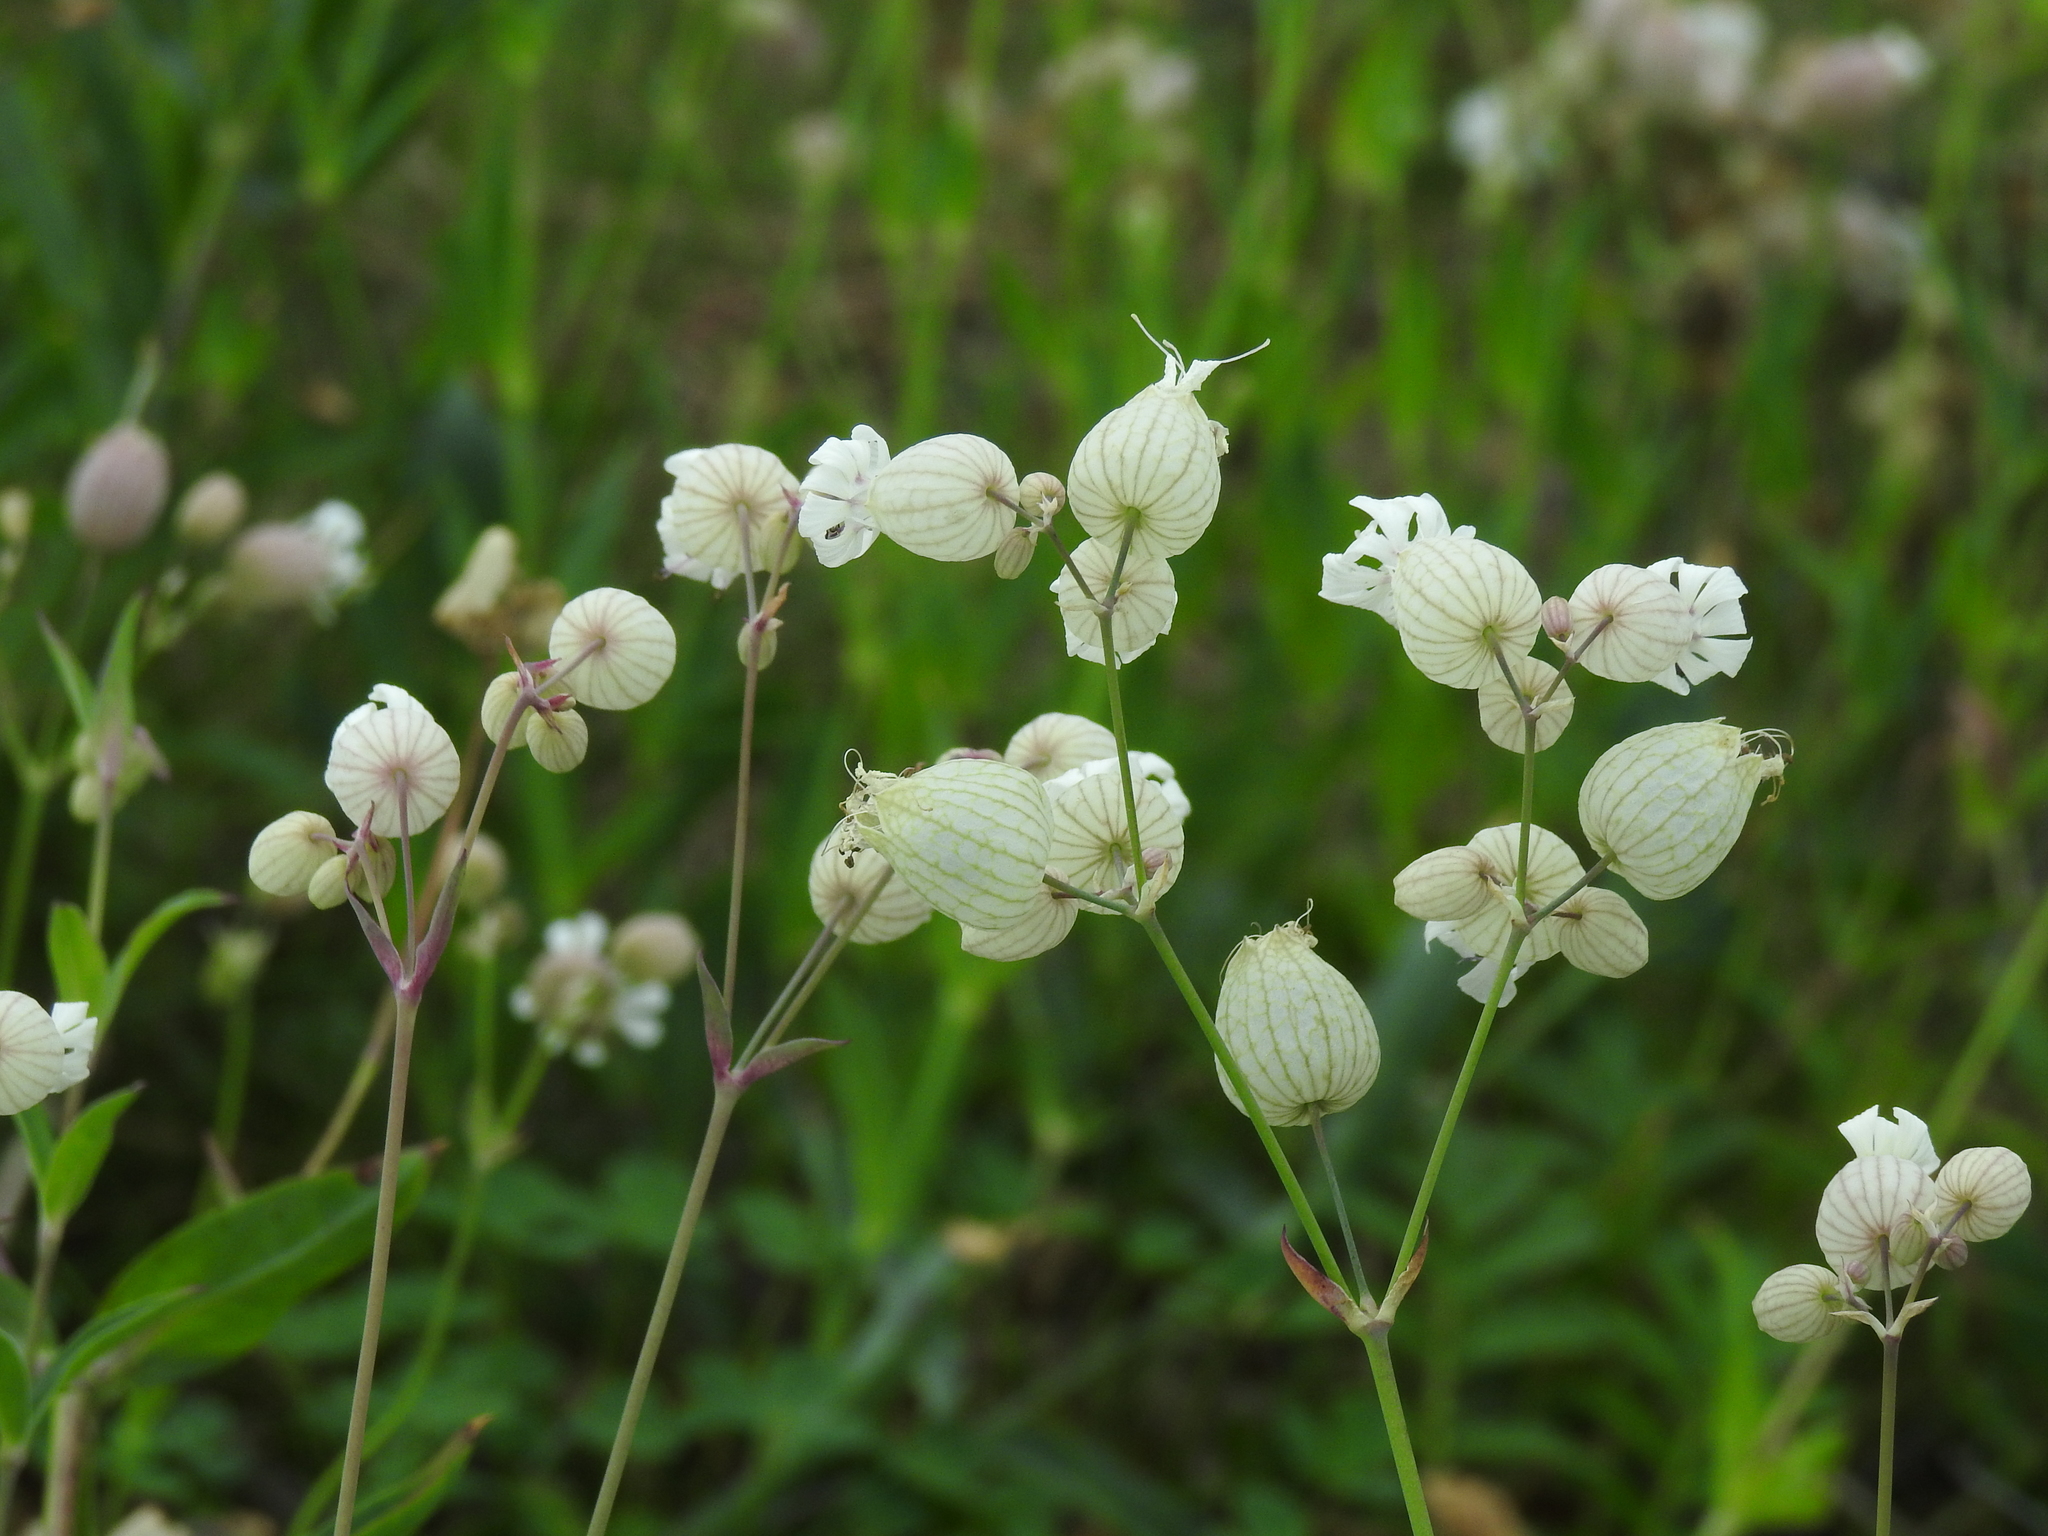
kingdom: Plantae
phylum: Tracheophyta
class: Magnoliopsida
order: Caryophyllales
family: Caryophyllaceae
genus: Silene
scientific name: Silene vulgaris
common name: Bladder campion
